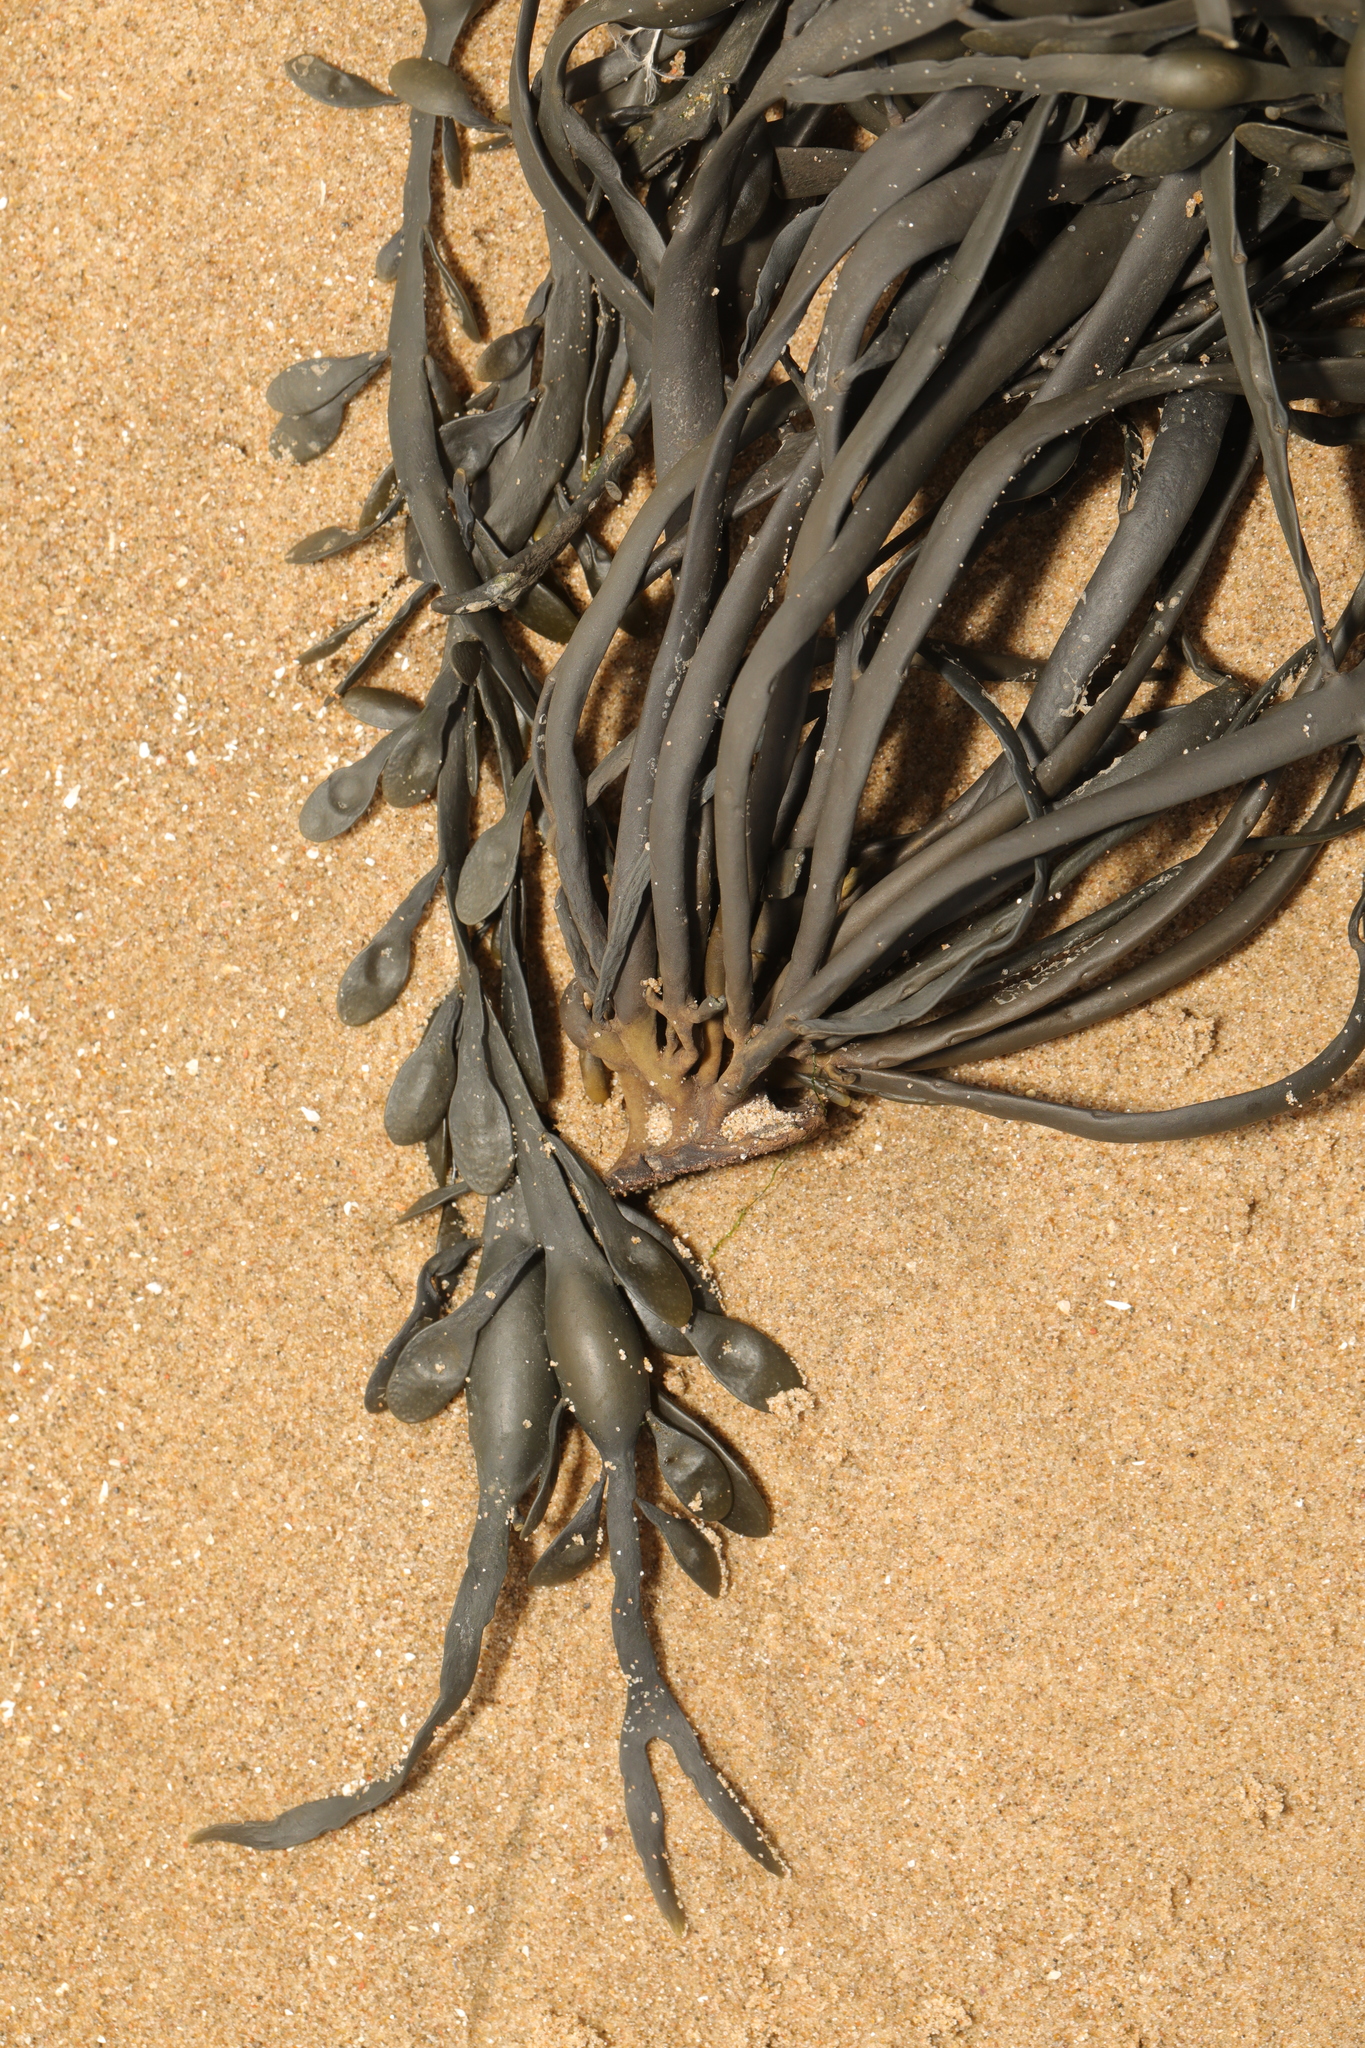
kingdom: Chromista
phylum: Ochrophyta
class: Phaeophyceae
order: Fucales
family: Fucaceae
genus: Ascophyllum
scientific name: Ascophyllum nodosum
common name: Knotted wrack
